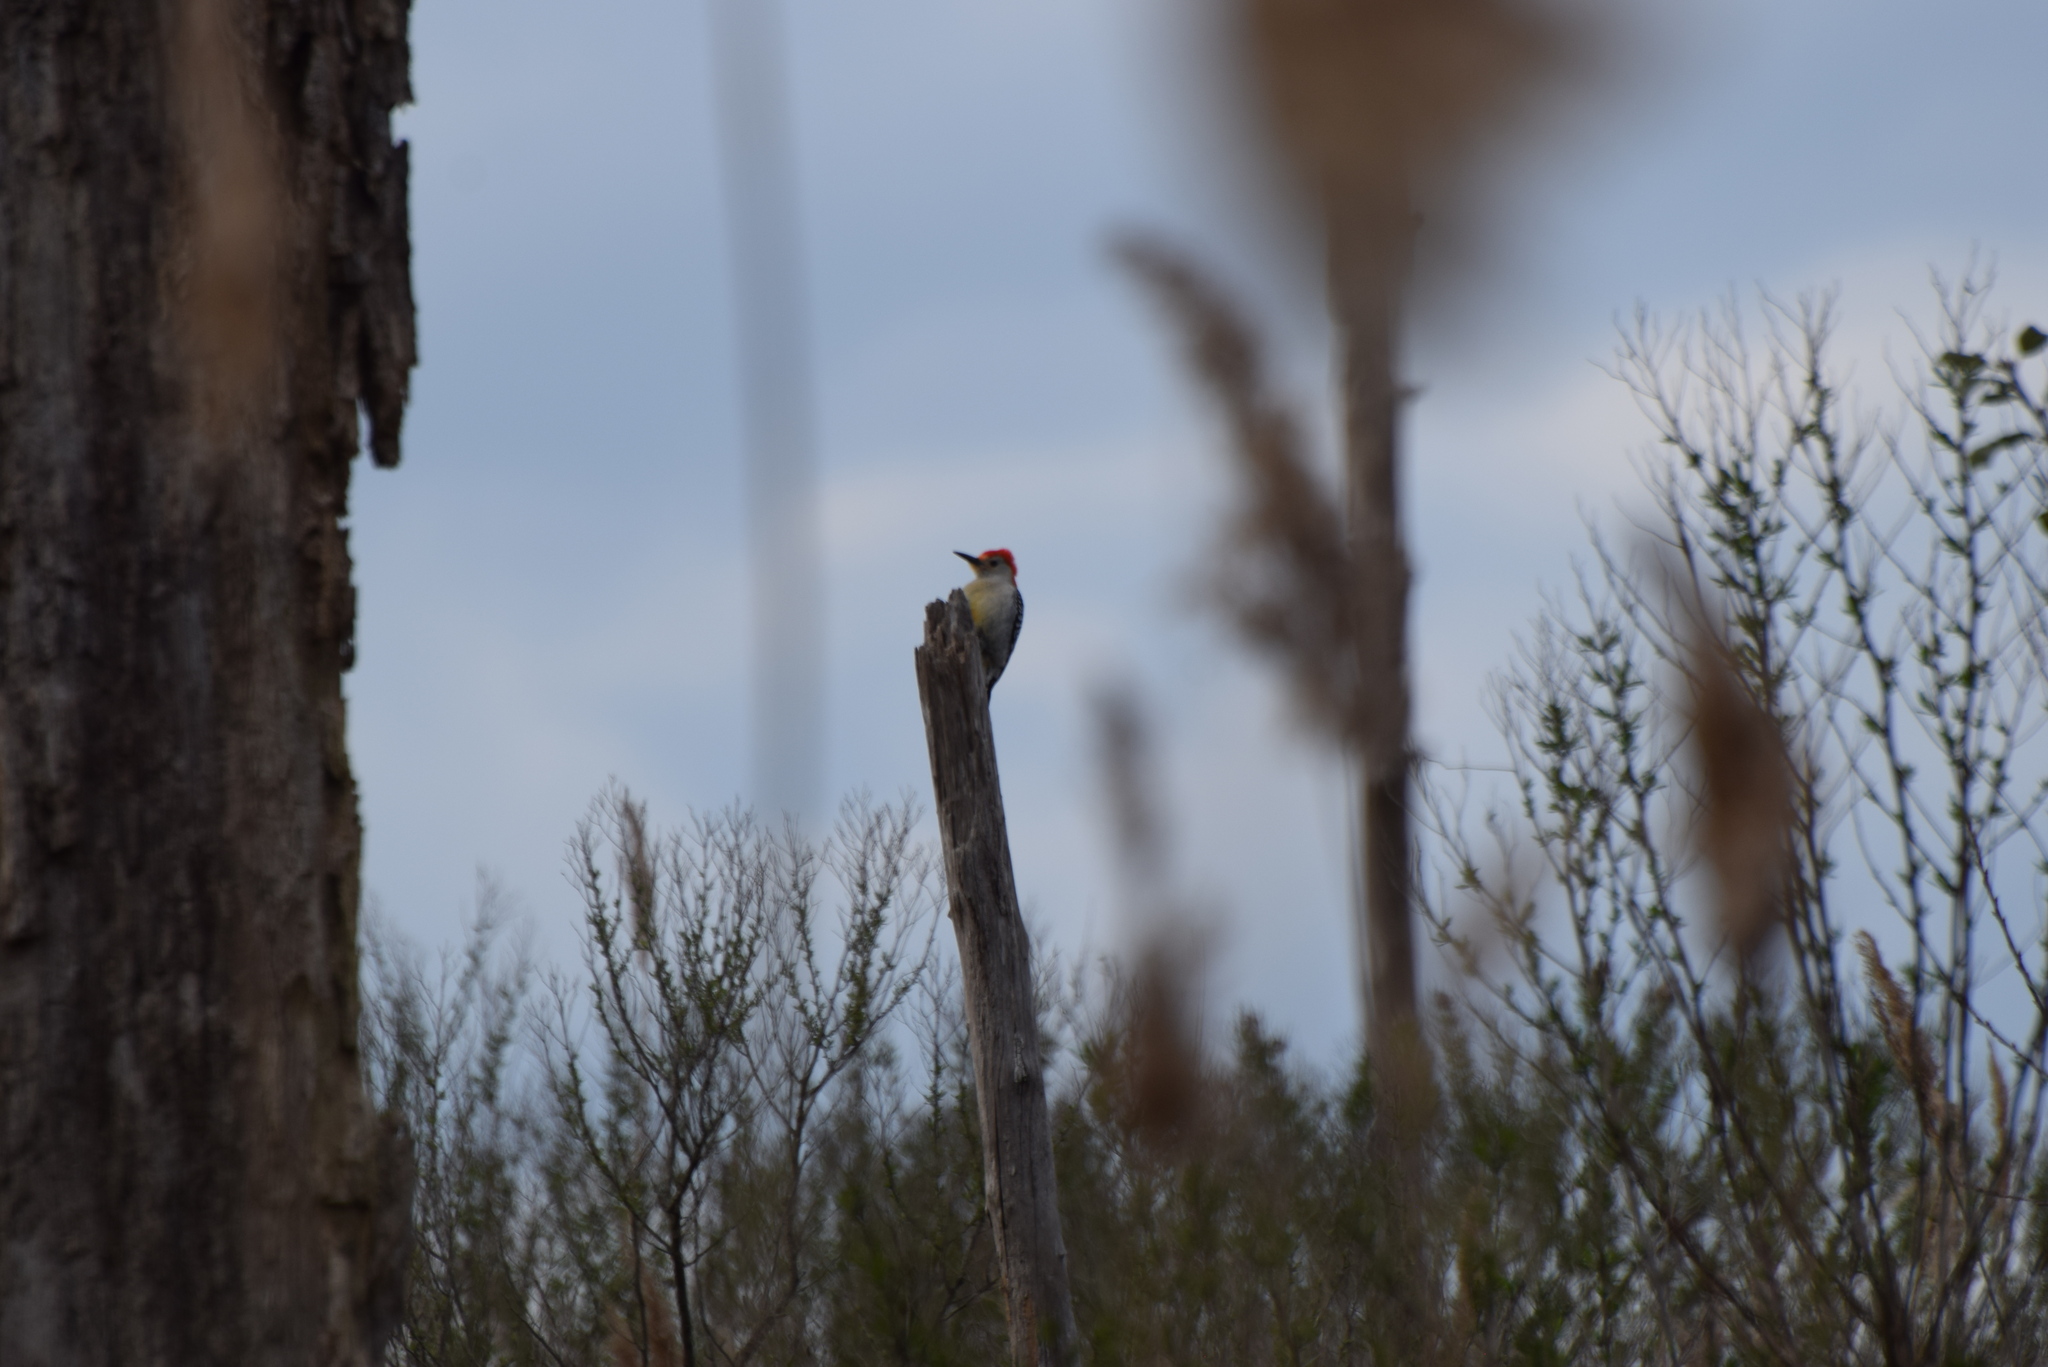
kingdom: Animalia
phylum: Chordata
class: Aves
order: Piciformes
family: Picidae
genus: Melanerpes
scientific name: Melanerpes carolinus
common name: Red-bellied woodpecker
